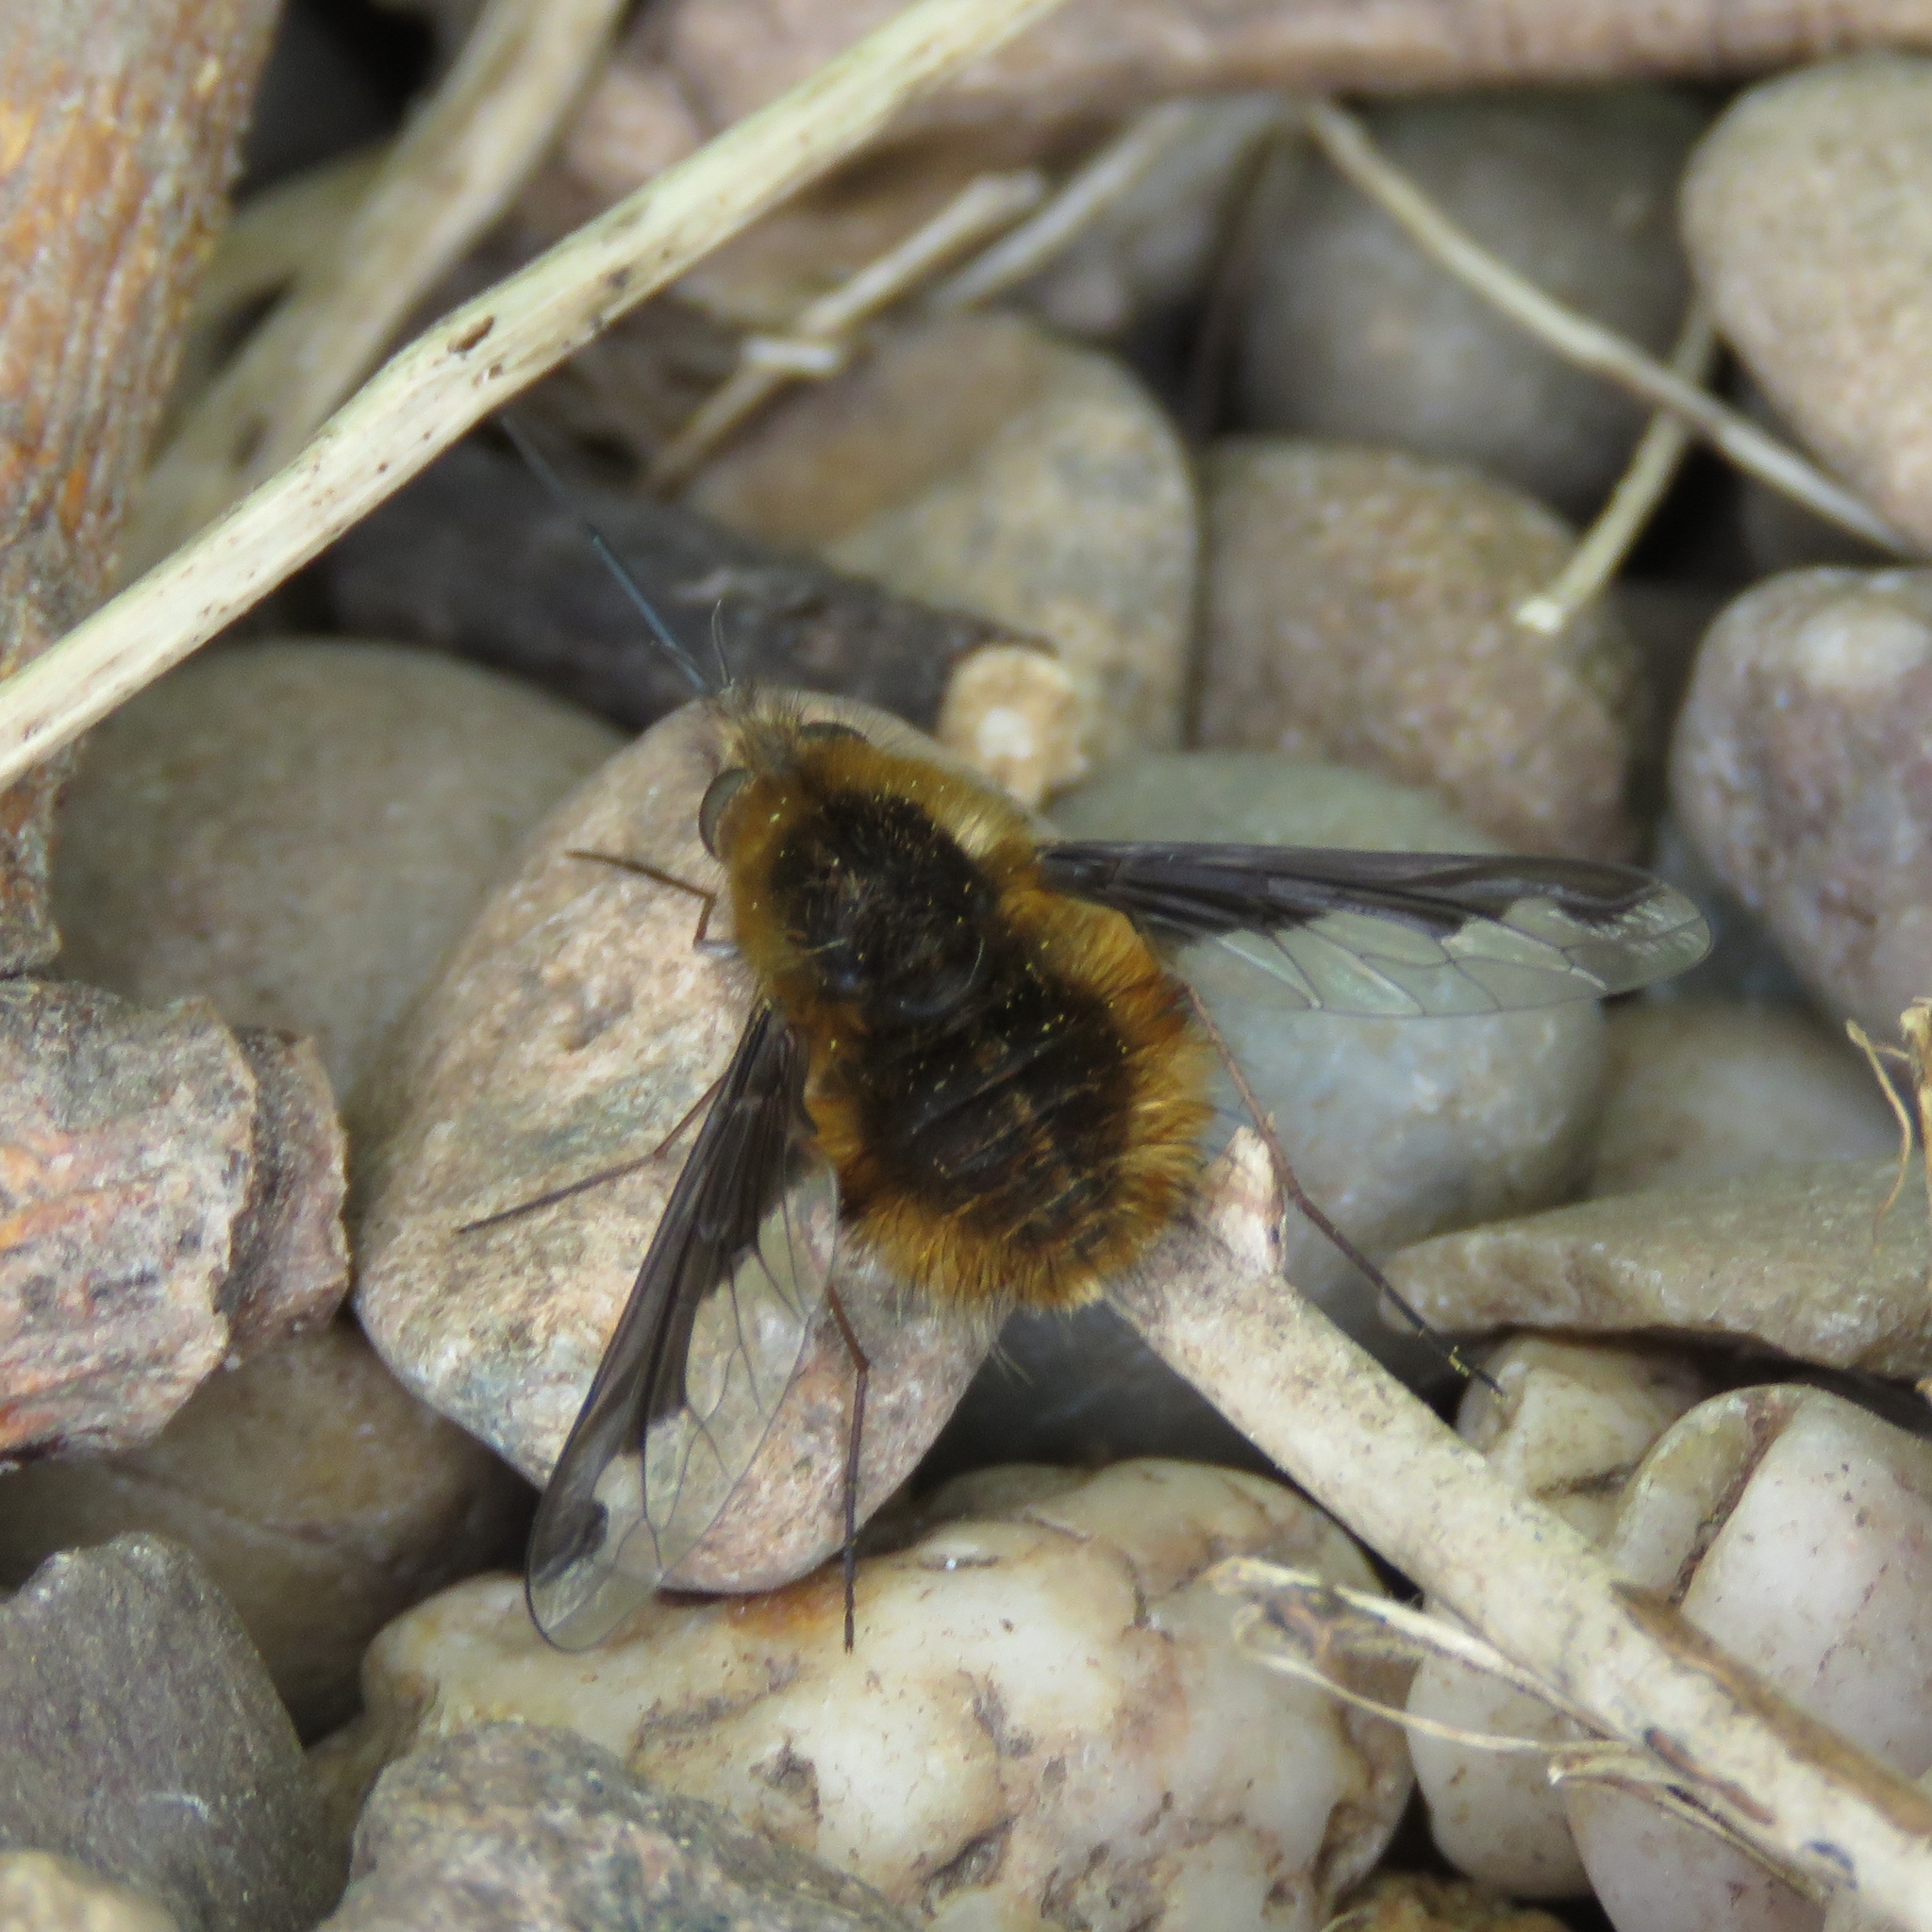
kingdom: Animalia
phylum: Arthropoda
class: Insecta
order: Diptera
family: Bombyliidae
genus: Bombylius
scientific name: Bombylius major
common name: Bee fly
